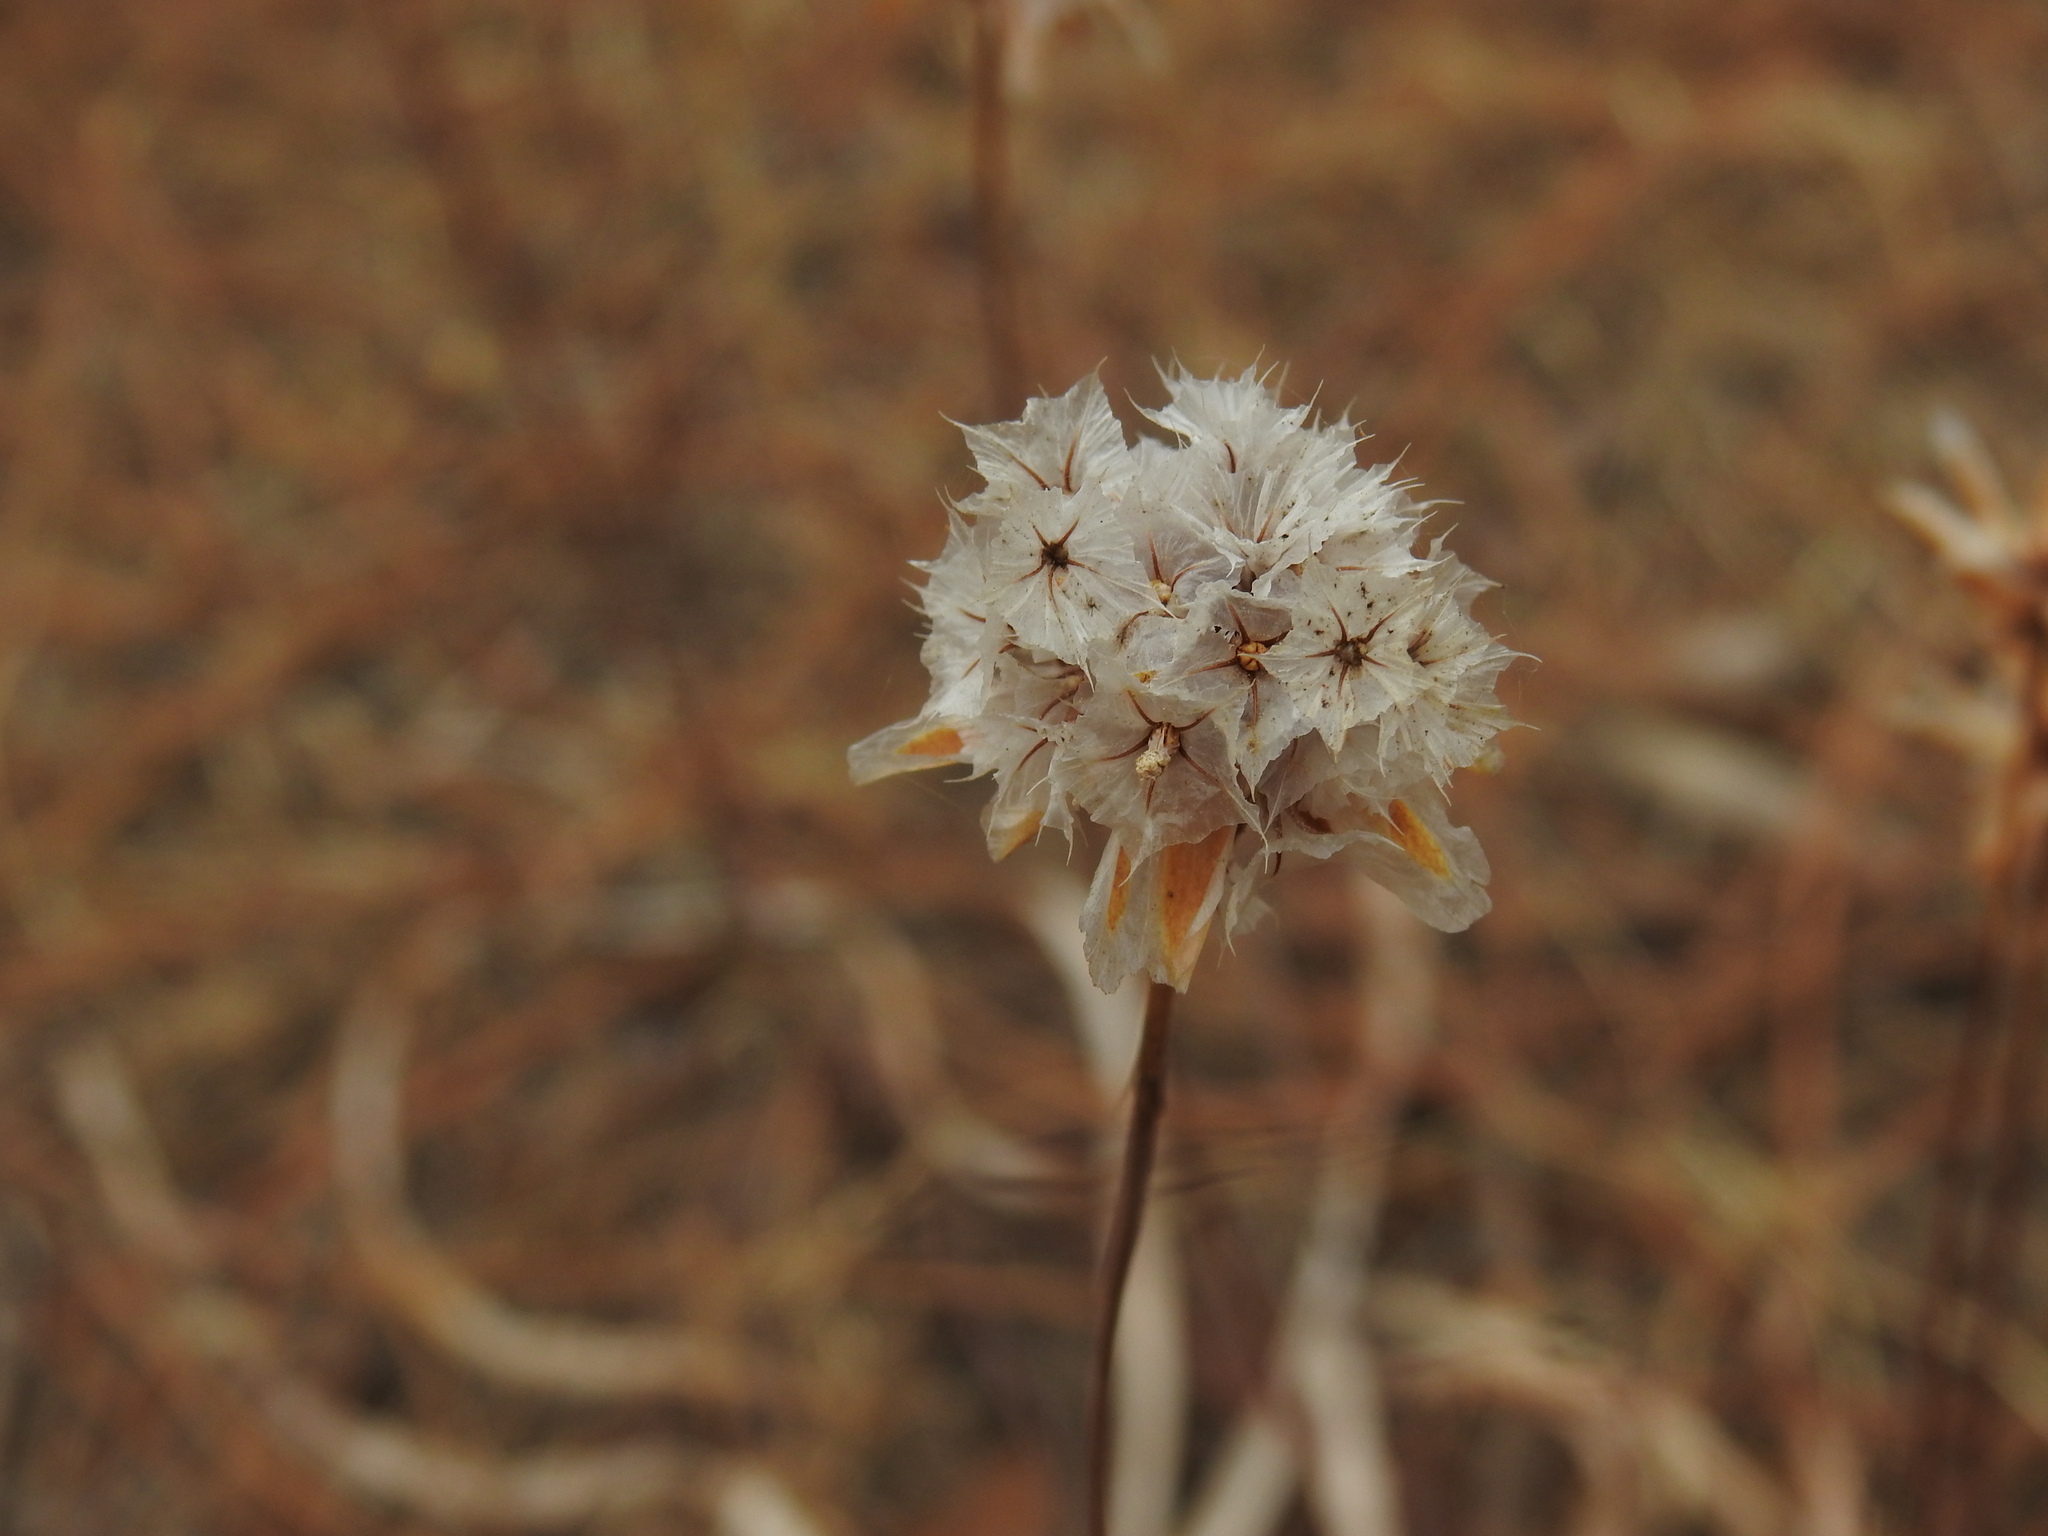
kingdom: Plantae
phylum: Tracheophyta
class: Magnoliopsida
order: Caryophyllales
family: Plumbaginaceae
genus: Armeria
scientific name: Armeria macrophylla
